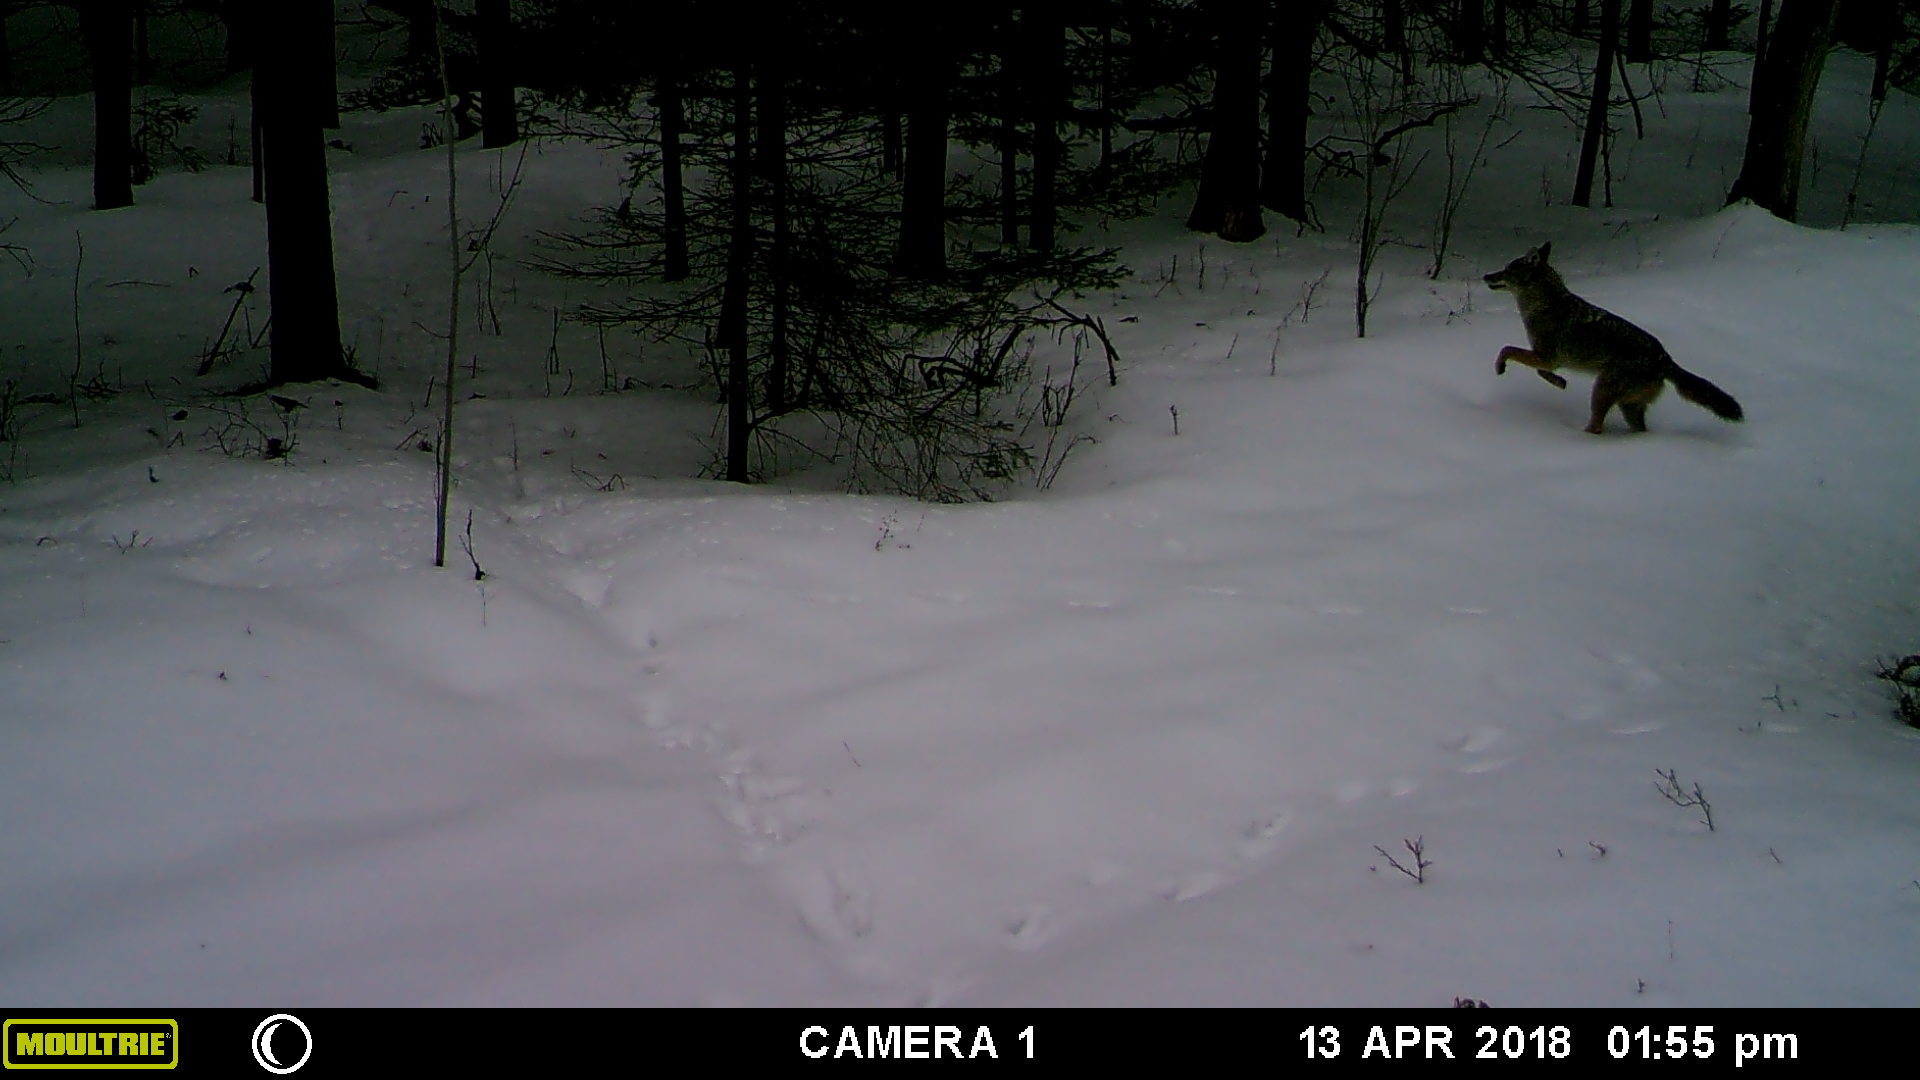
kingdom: Animalia
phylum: Chordata
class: Mammalia
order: Carnivora
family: Canidae
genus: Canis
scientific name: Canis latrans
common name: Coyote
